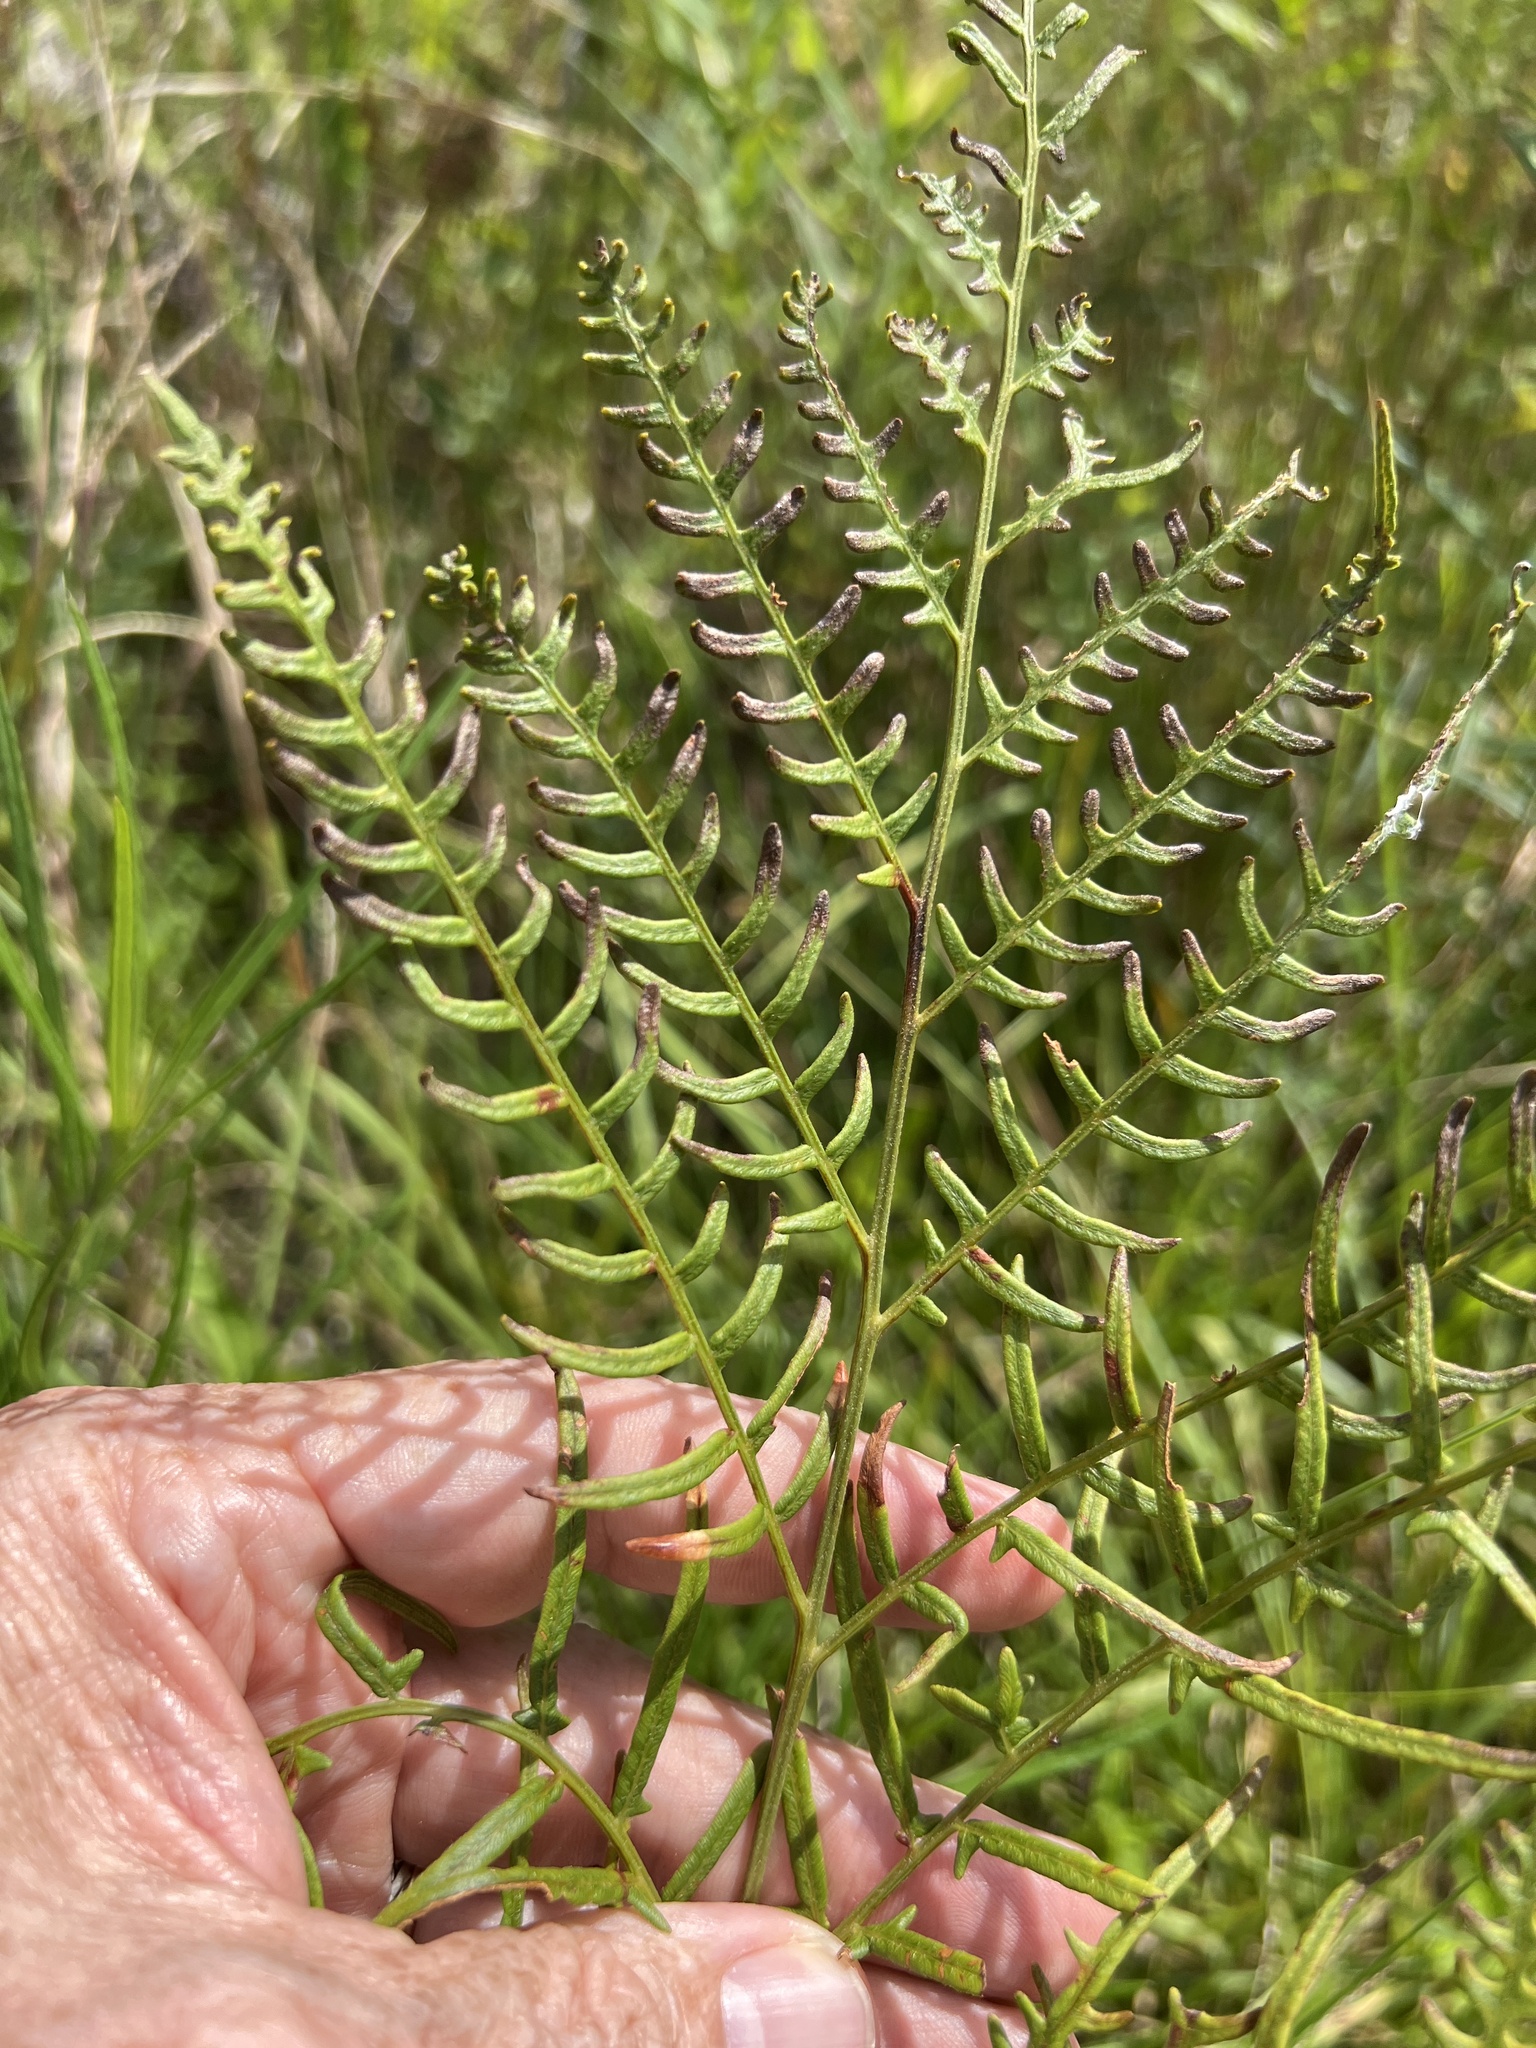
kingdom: Plantae
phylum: Tracheophyta
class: Polypodiopsida
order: Polypodiales
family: Dennstaedtiaceae
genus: Pteridium
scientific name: Pteridium
